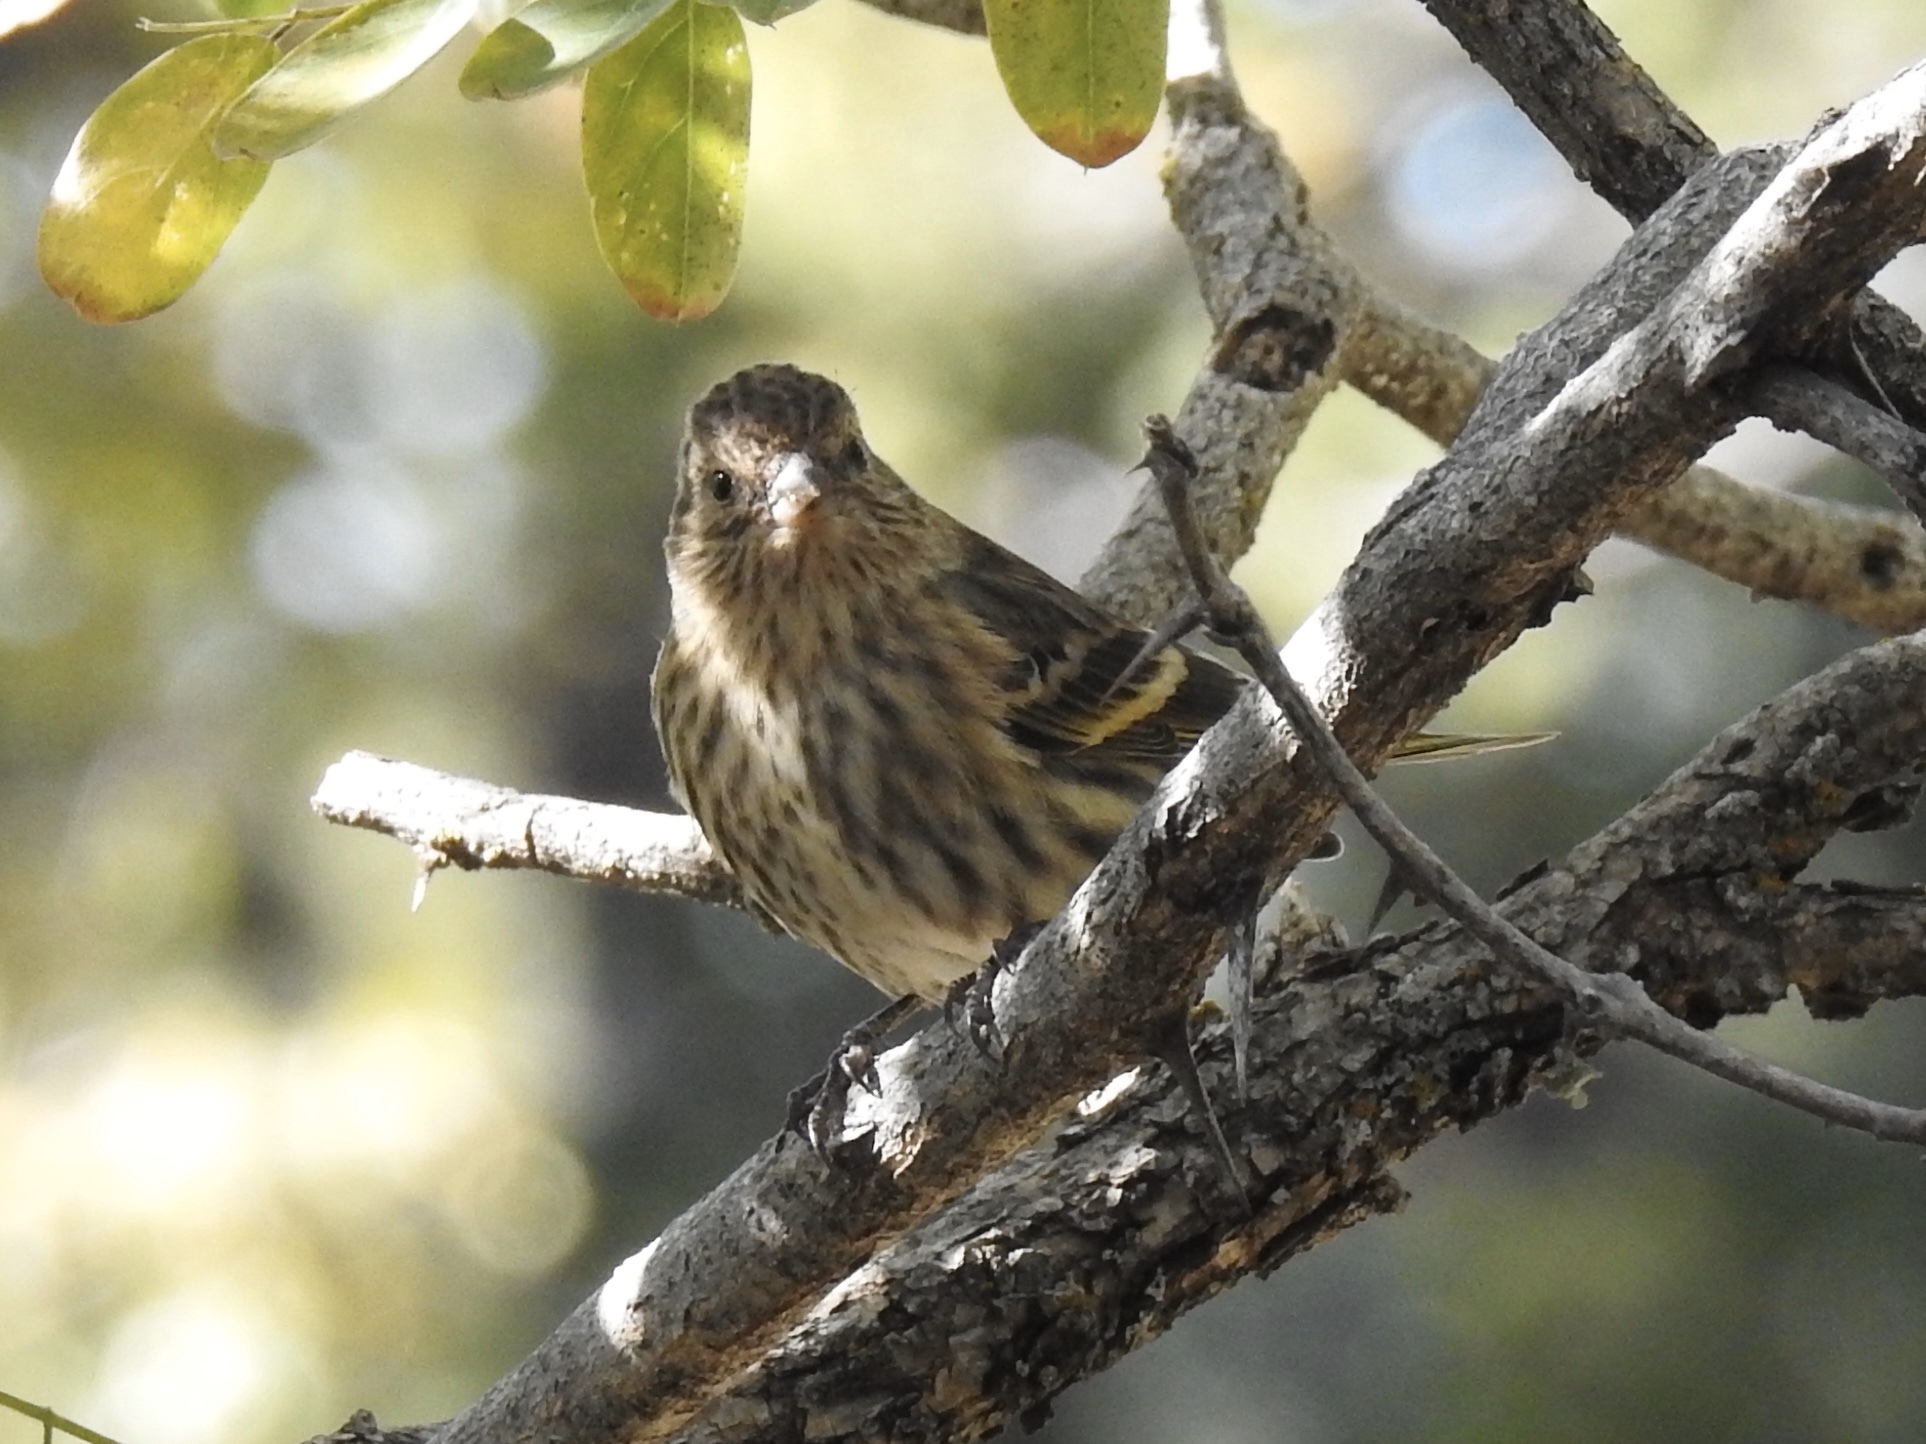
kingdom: Animalia
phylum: Chordata
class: Aves
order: Passeriformes
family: Fringillidae
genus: Spinus
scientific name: Spinus pinus
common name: Pine siskin
